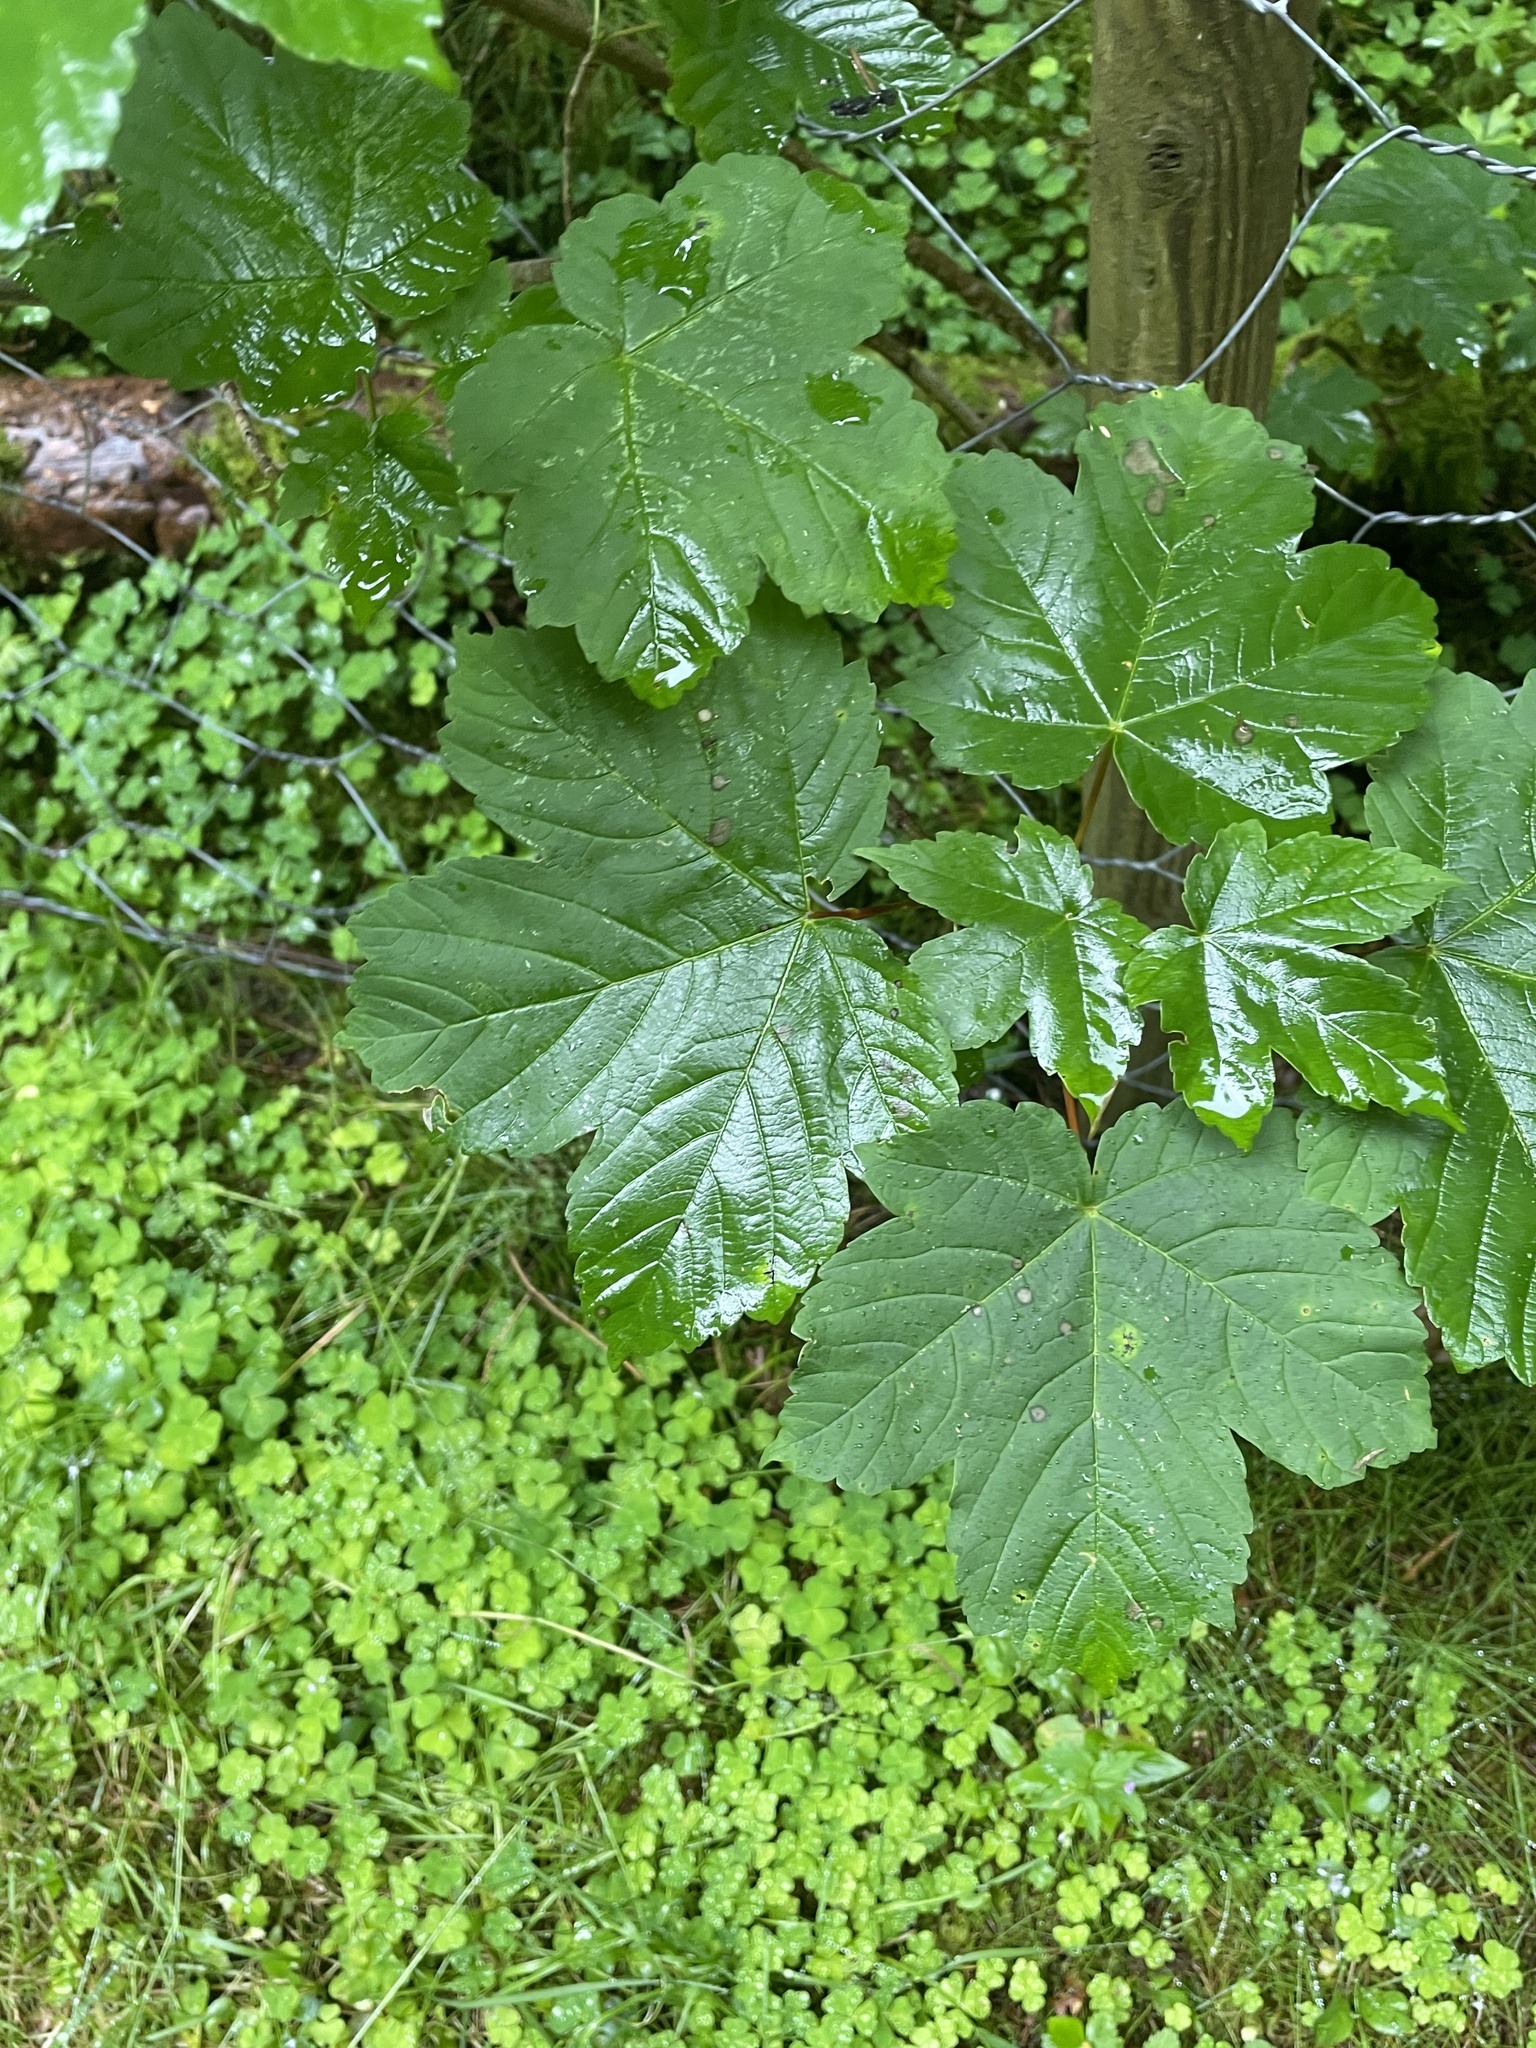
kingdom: Plantae
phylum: Tracheophyta
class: Magnoliopsida
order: Sapindales
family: Sapindaceae
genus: Acer
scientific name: Acer pseudoplatanus
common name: Sycamore
